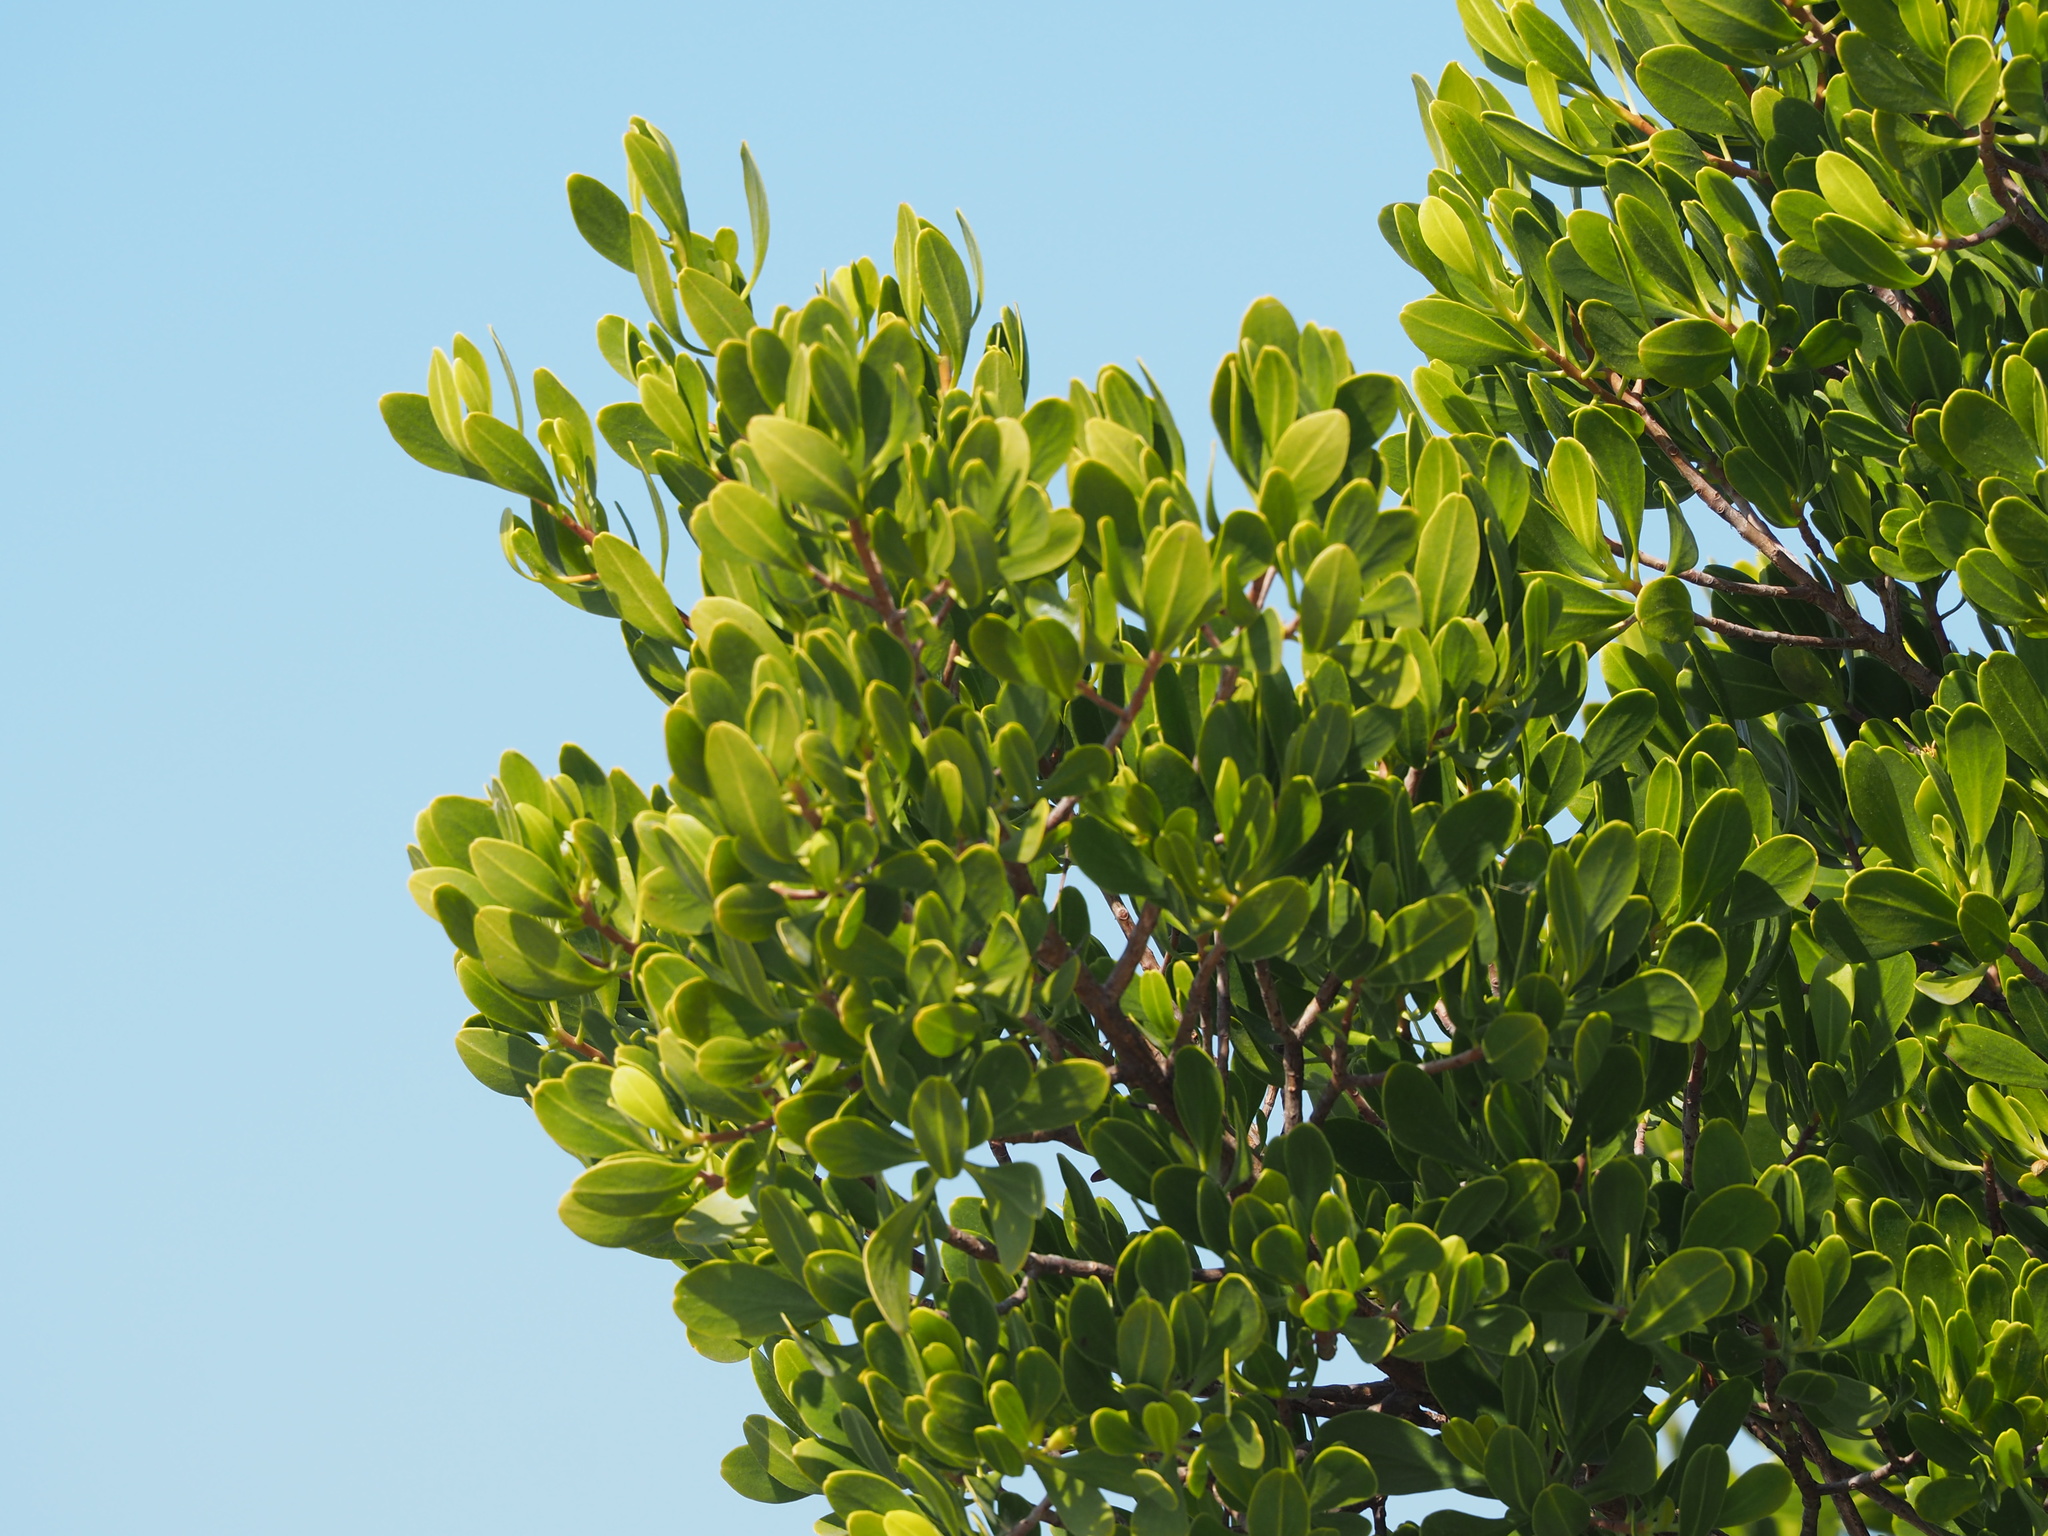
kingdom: Plantae
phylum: Tracheophyta
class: Magnoliopsida
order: Myrtales
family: Combretaceae
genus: Lumnitzera
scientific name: Lumnitzera racemosa
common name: White-flowered black mangrove
